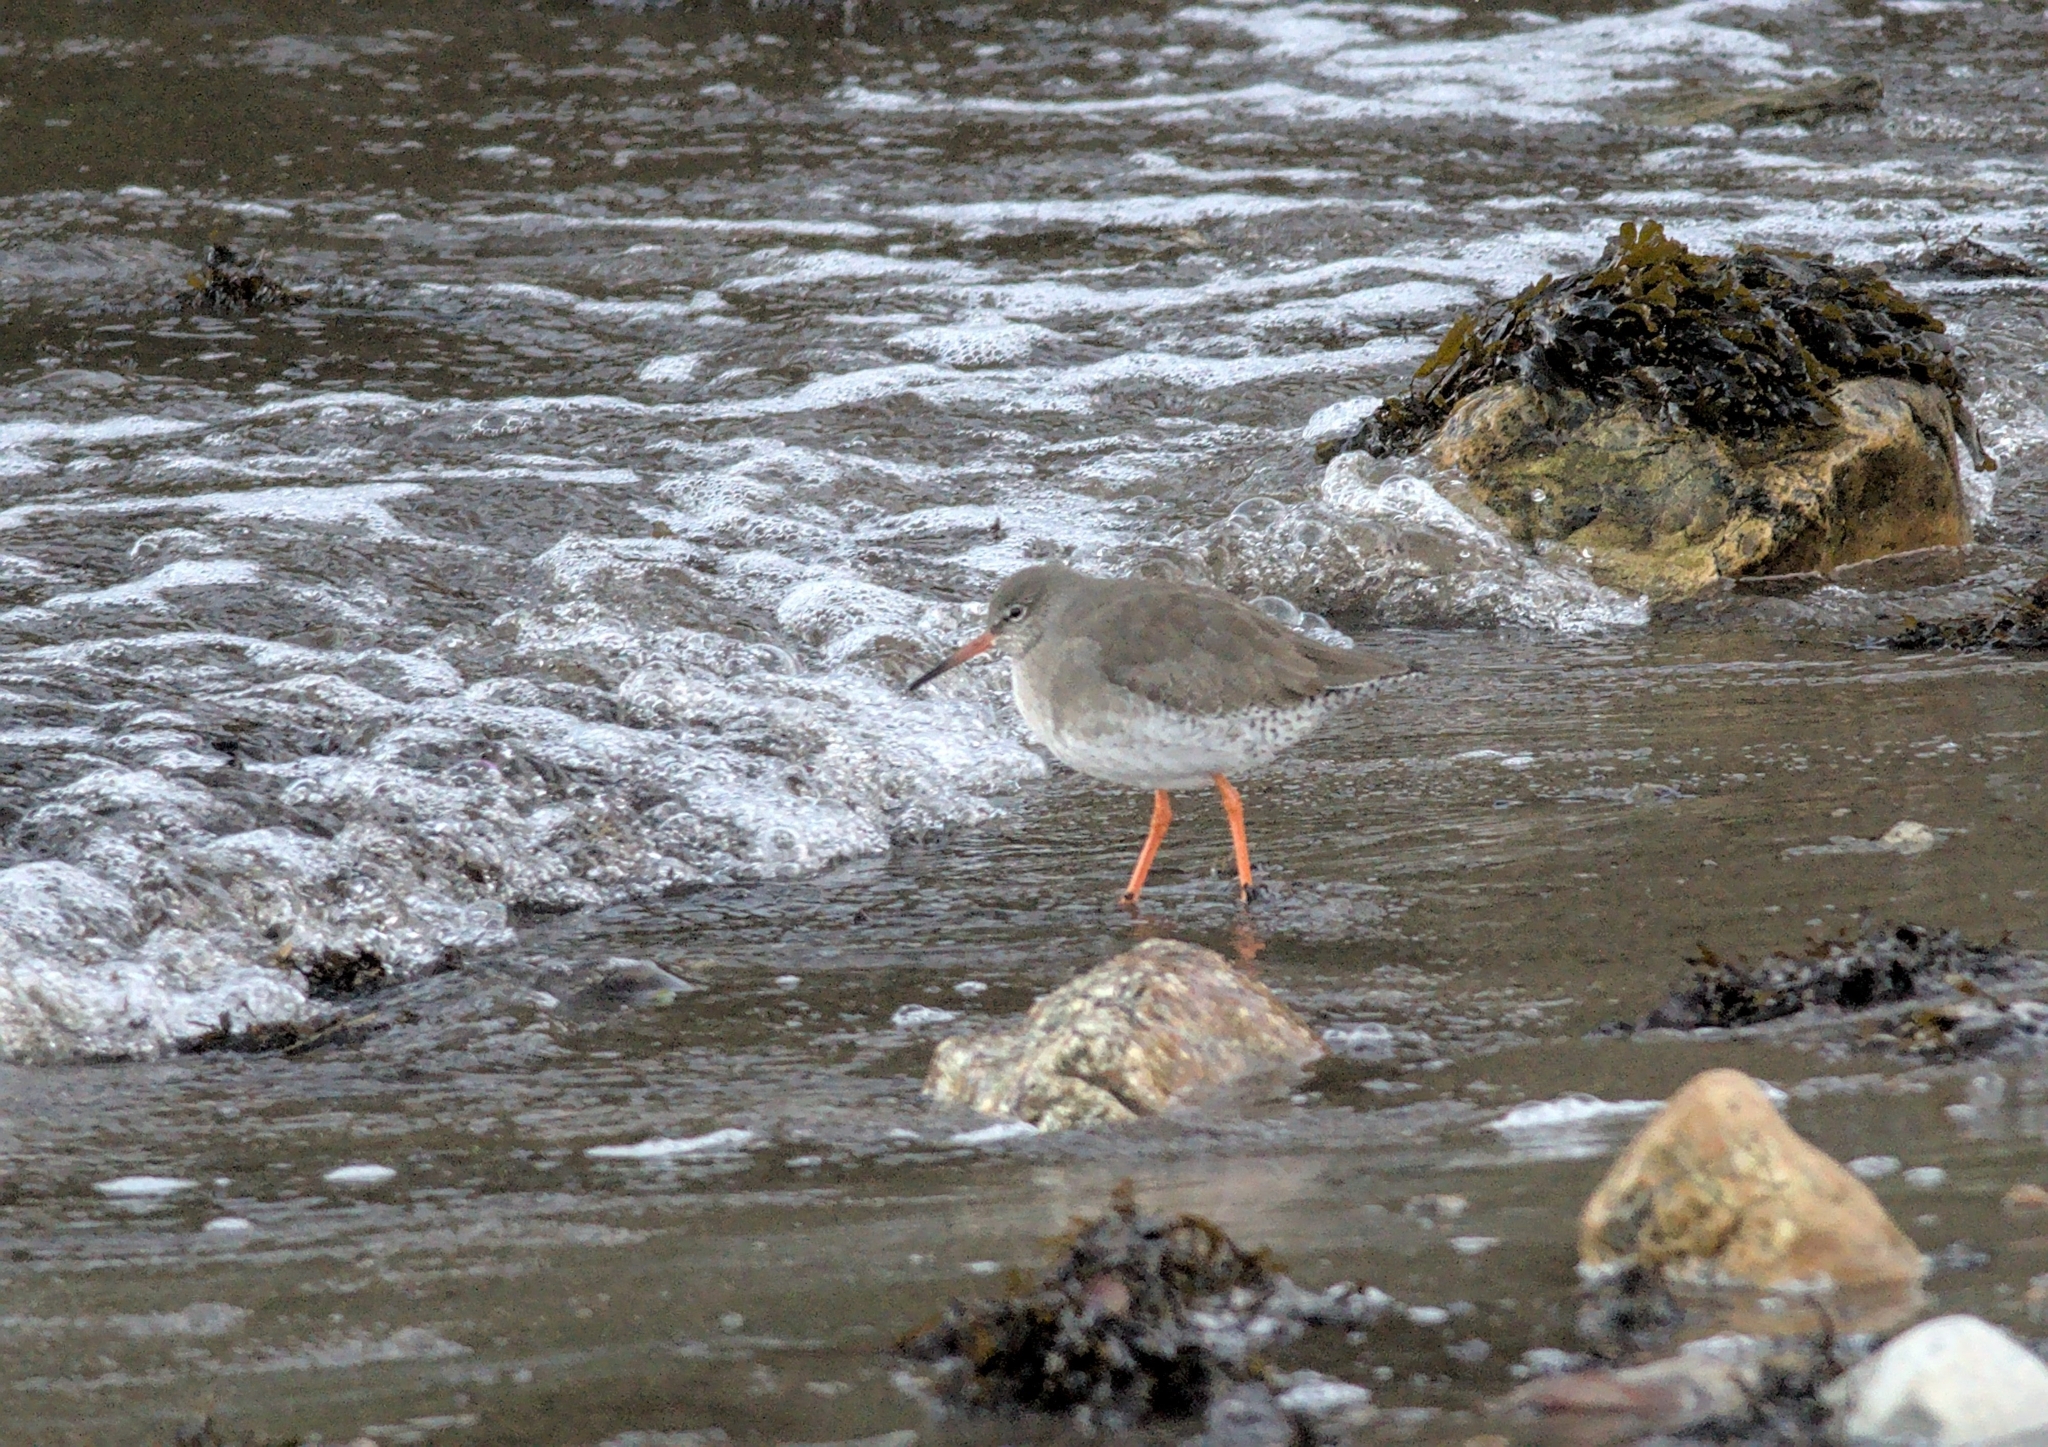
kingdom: Animalia
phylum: Chordata
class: Aves
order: Charadriiformes
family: Scolopacidae
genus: Tringa
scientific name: Tringa totanus
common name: Common redshank
